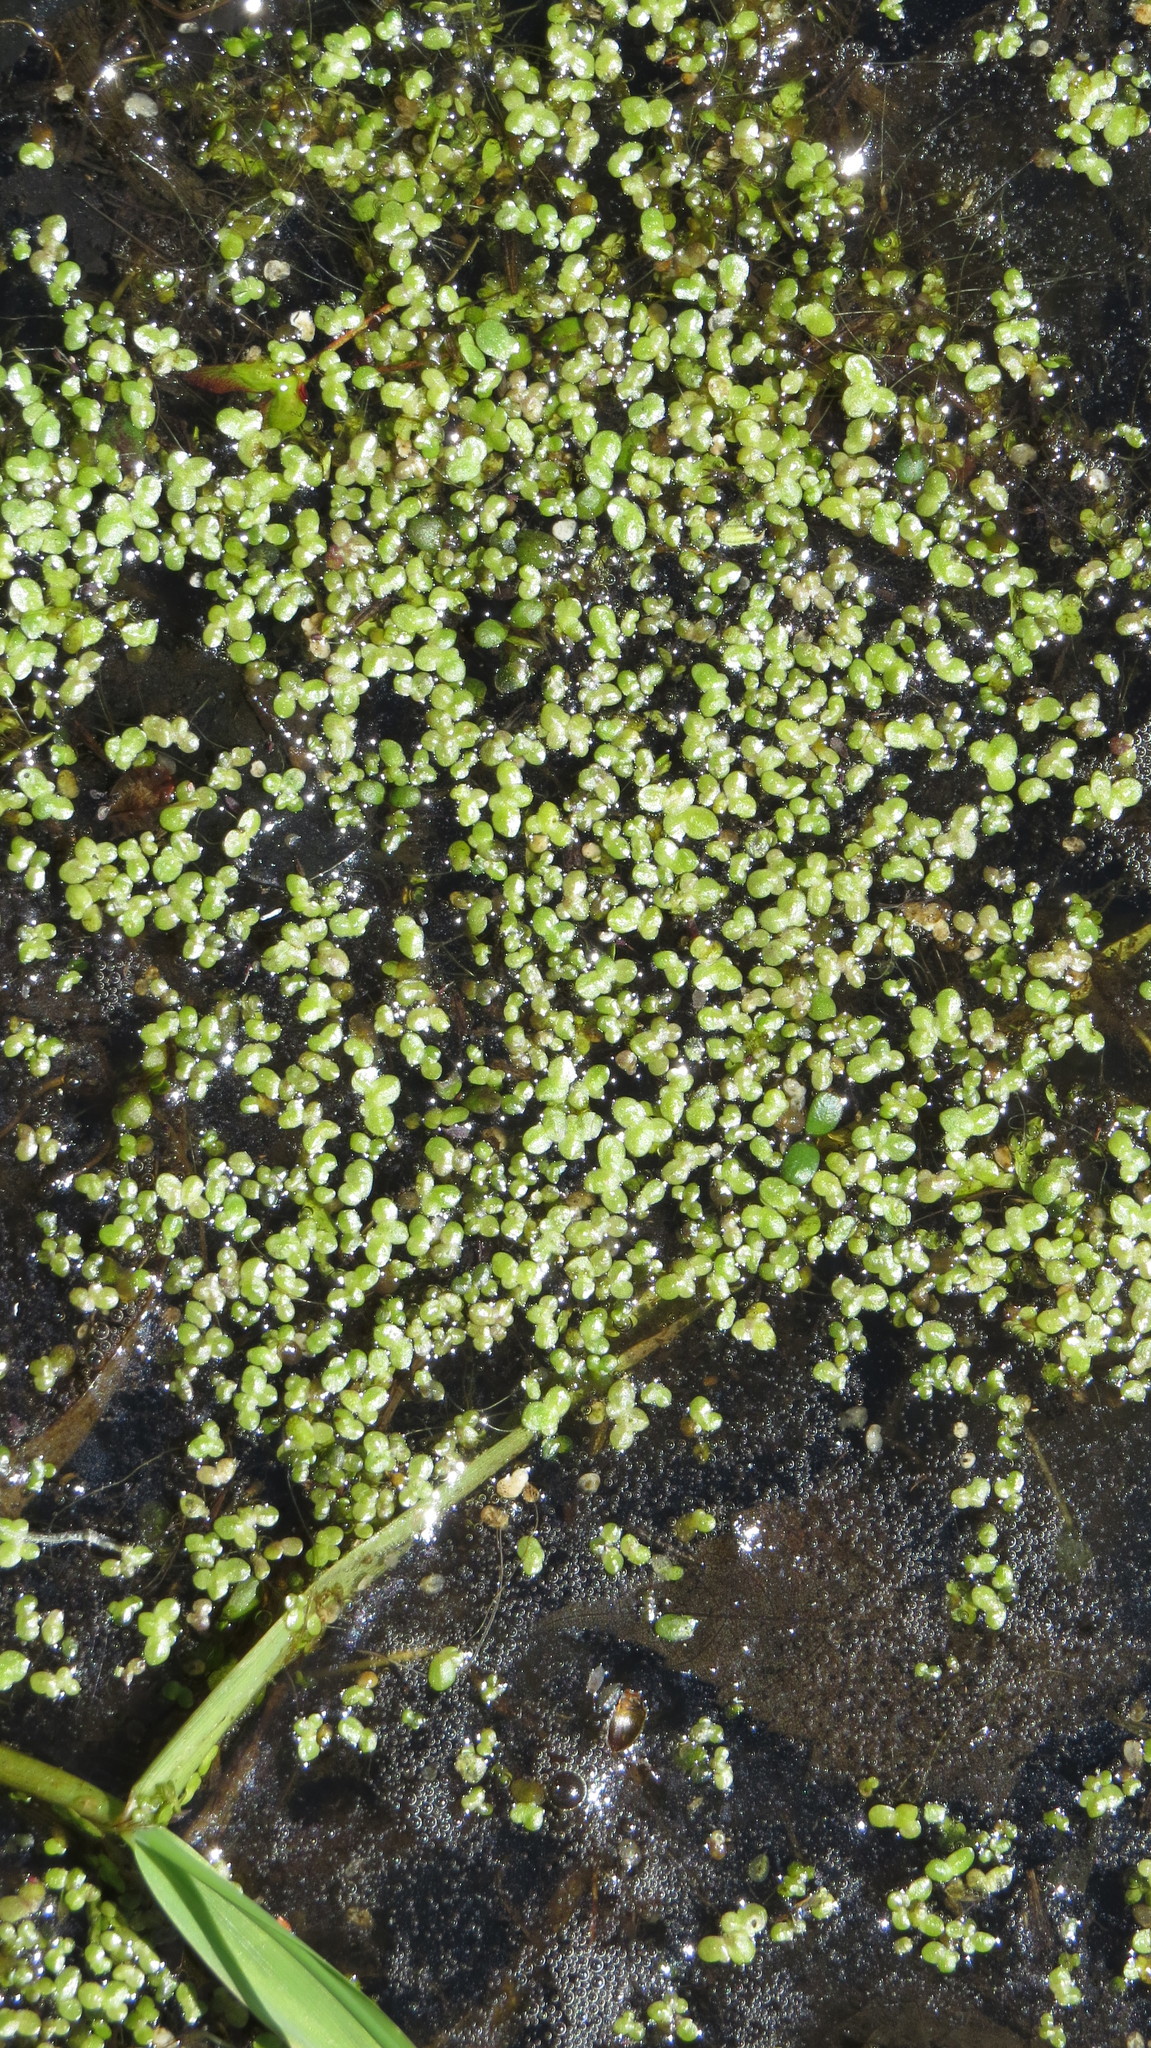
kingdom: Plantae
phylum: Tracheophyta
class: Liliopsida
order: Alismatales
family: Araceae
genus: Lemna
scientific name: Lemna minor
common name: Common duckweed
